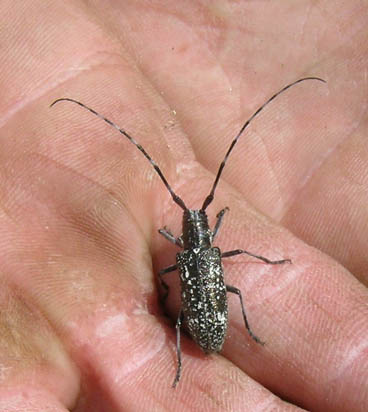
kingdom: Animalia
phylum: Arthropoda
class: Insecta
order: Coleoptera
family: Cerambycidae
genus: Monochamus
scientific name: Monochamus scutellatus
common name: White-spotted sawyer beetle
